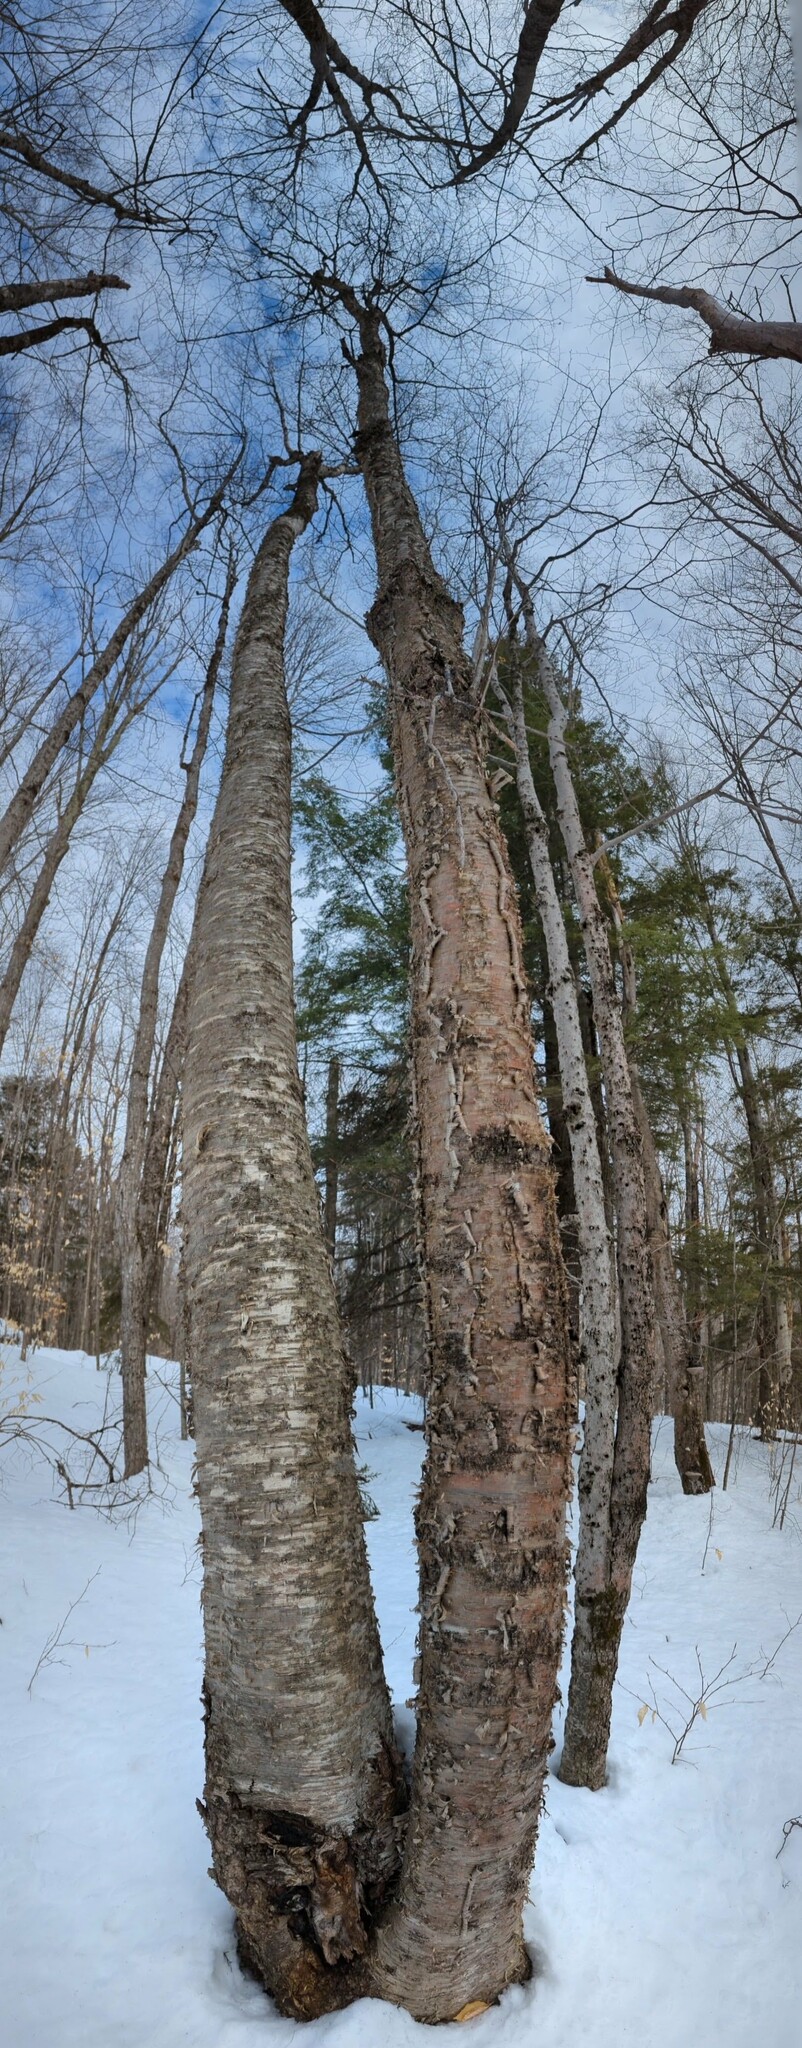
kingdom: Plantae
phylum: Tracheophyta
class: Magnoliopsida
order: Fagales
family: Betulaceae
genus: Betula
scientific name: Betula alleghaniensis
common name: Yellow birch
